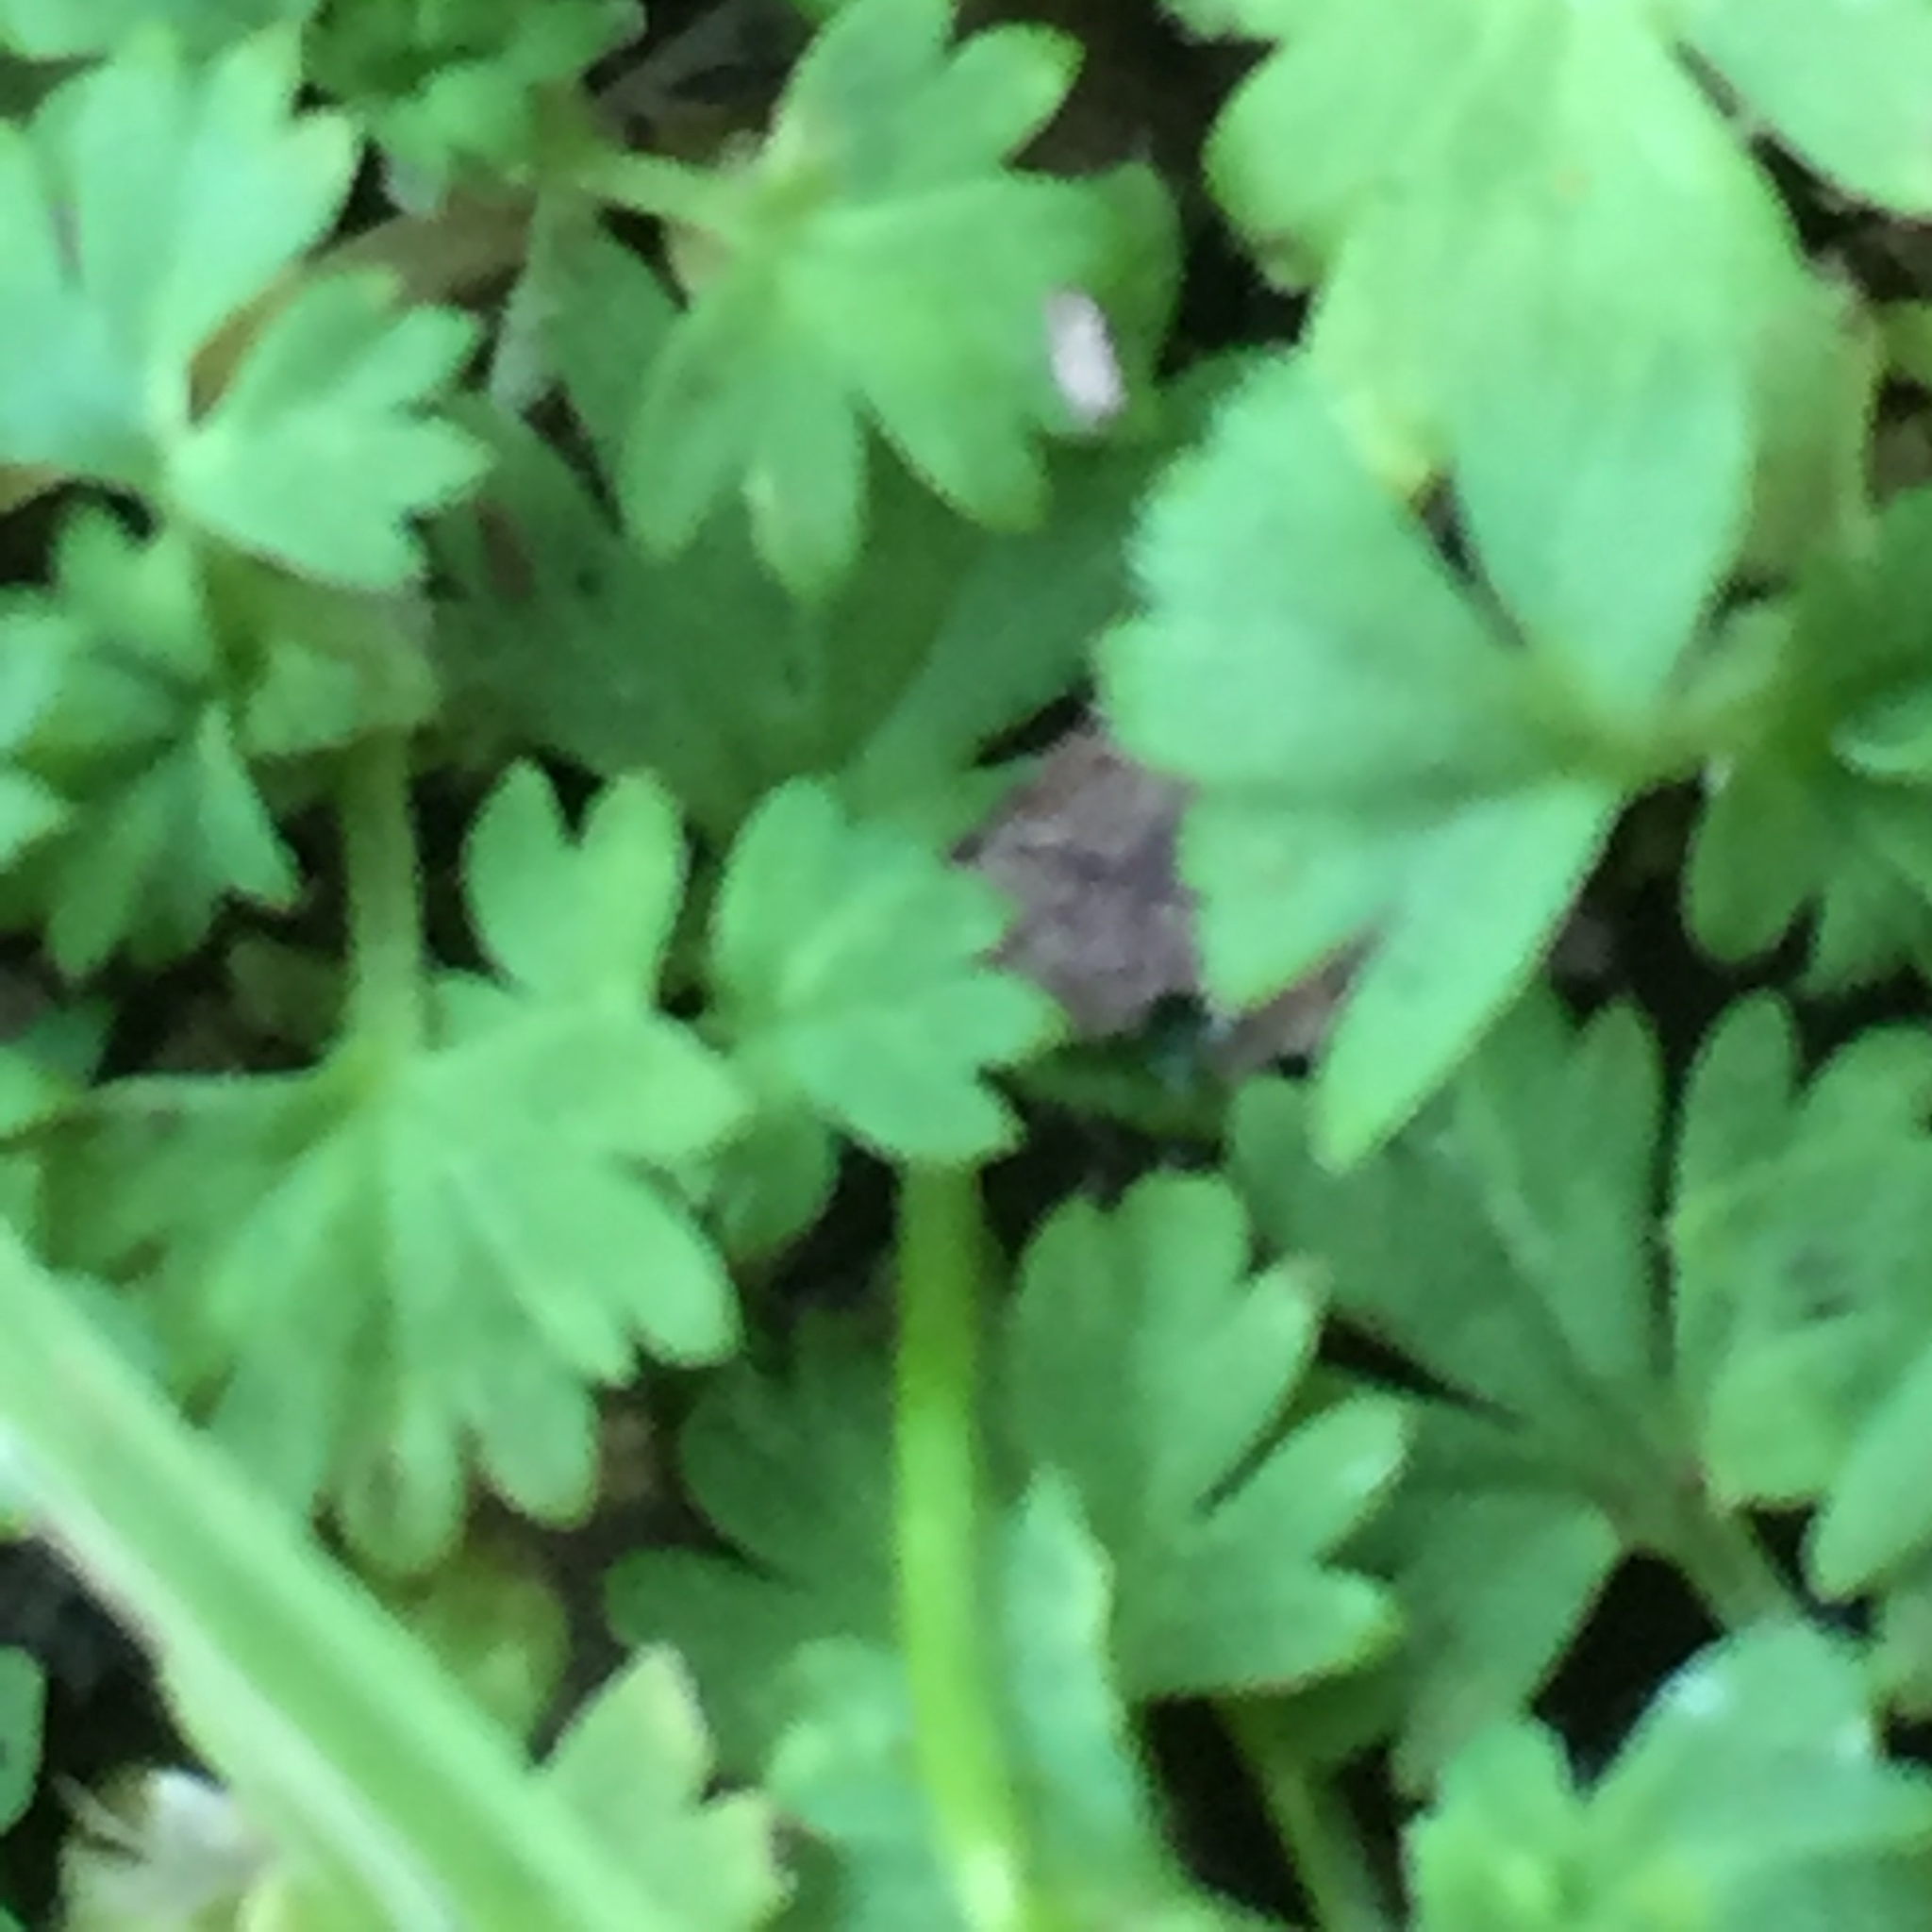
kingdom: Plantae
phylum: Tracheophyta
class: Magnoliopsida
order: Rosales
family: Rosaceae
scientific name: Rosaceae
